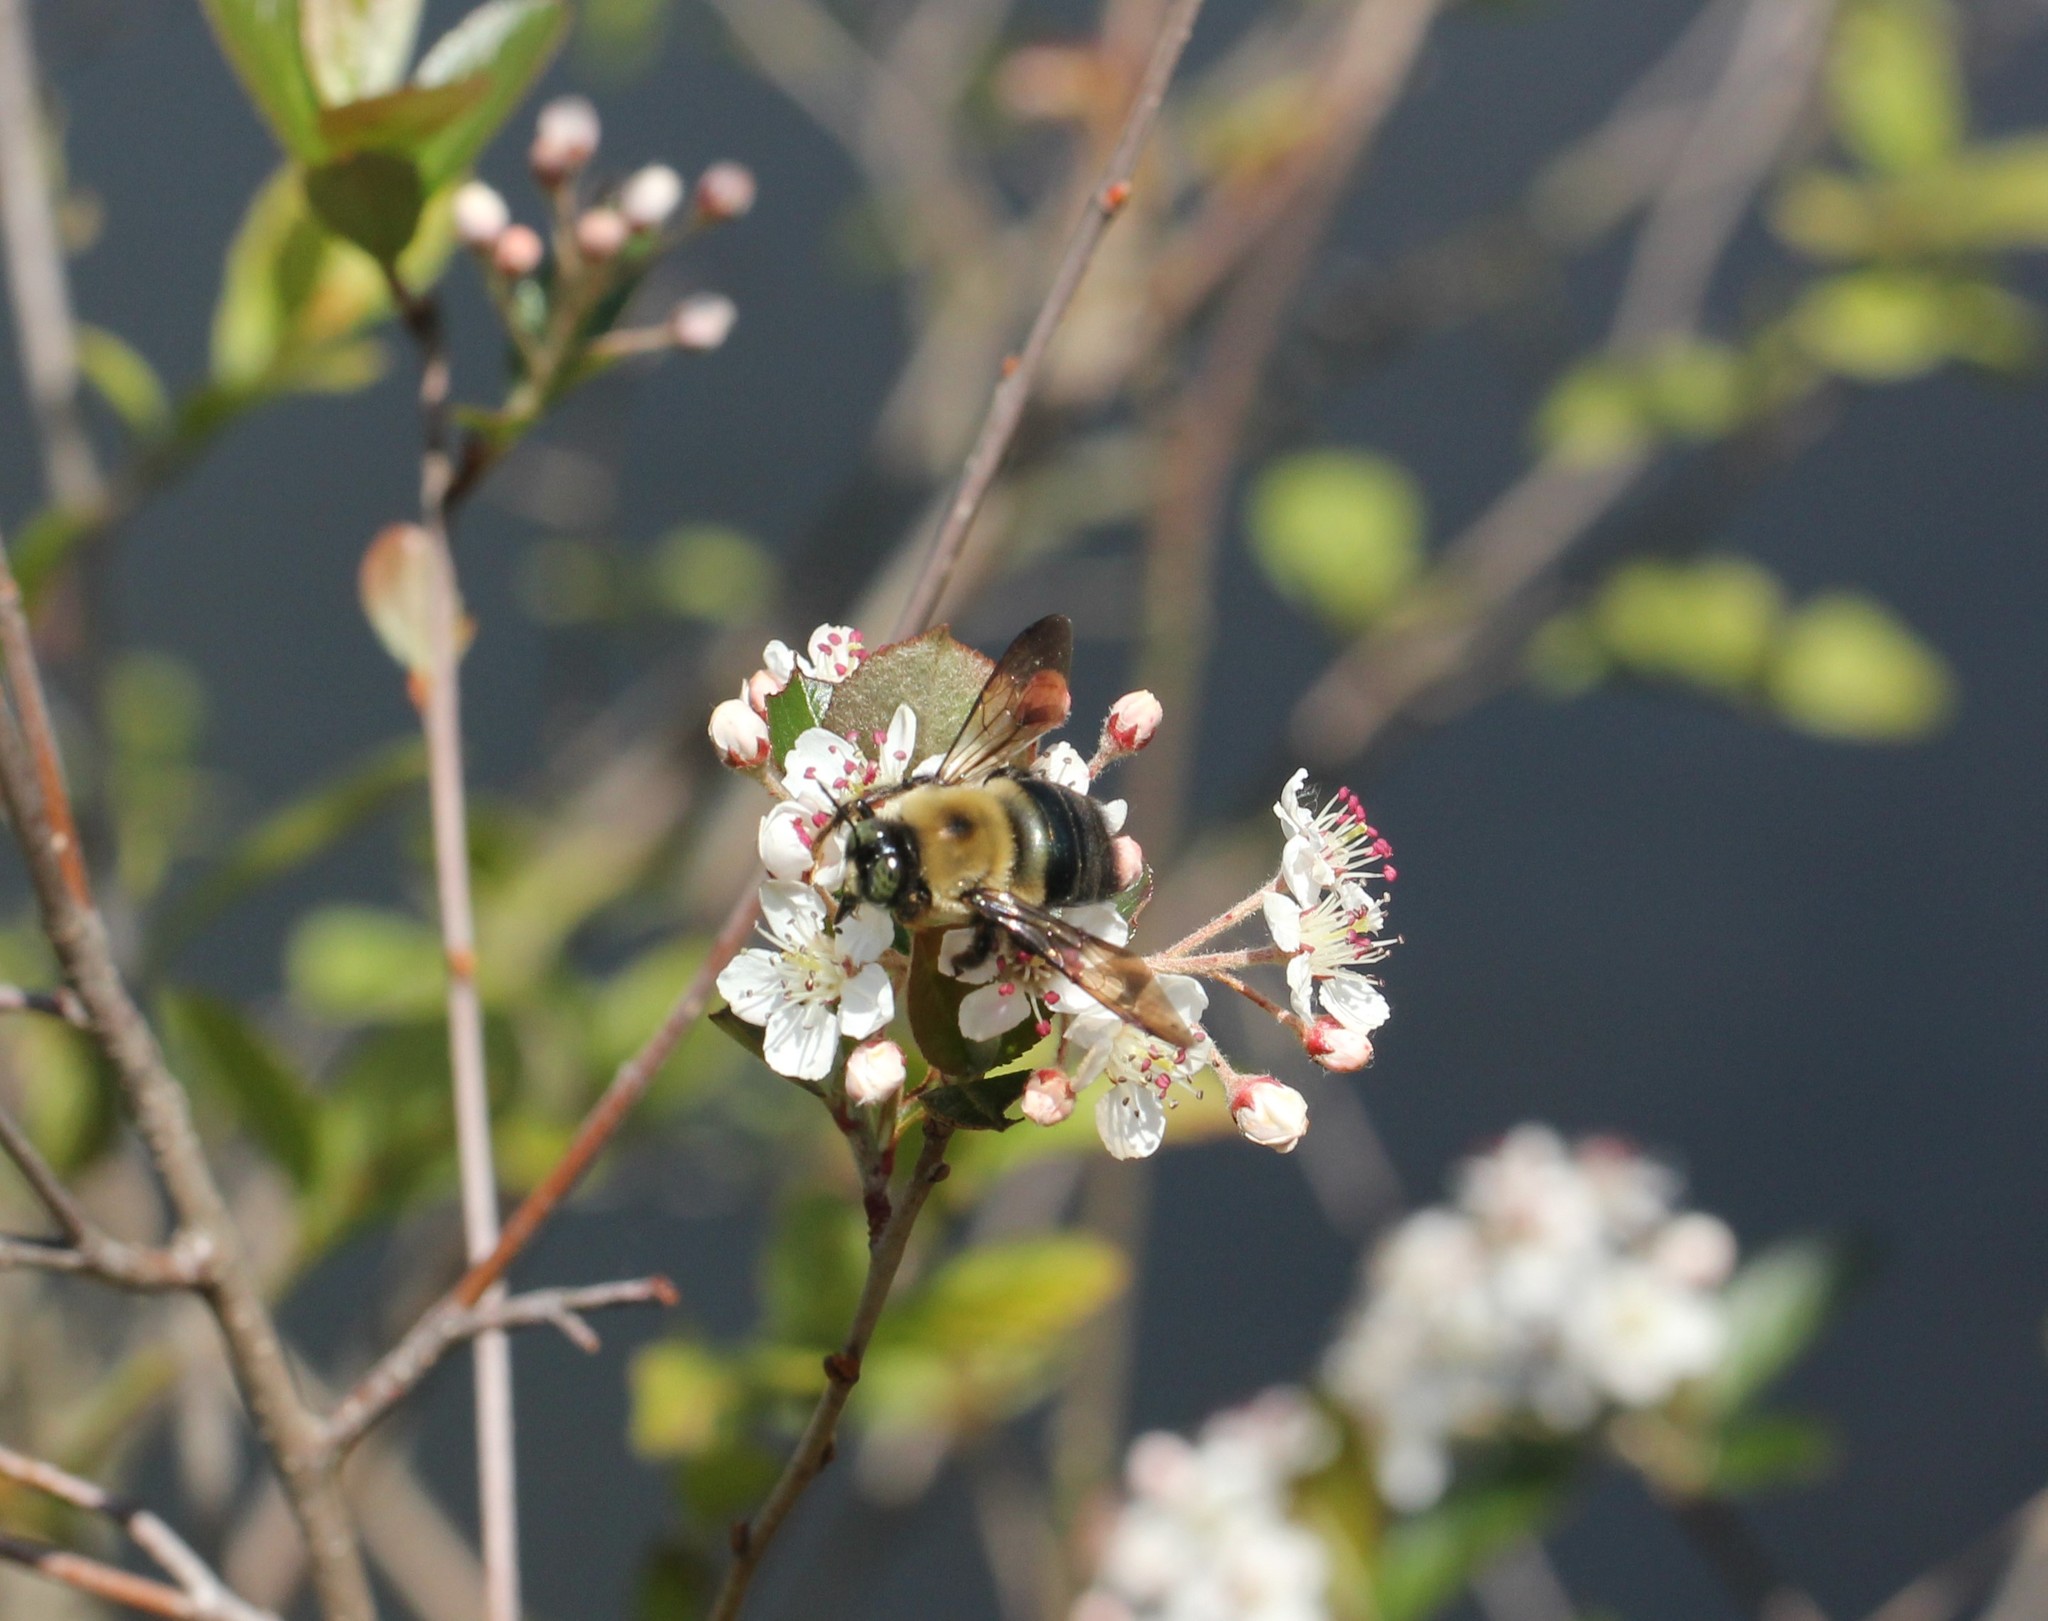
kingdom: Animalia
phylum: Arthropoda
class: Insecta
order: Hymenoptera
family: Apidae
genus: Xylocopa
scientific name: Xylocopa virginica
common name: Carpenter bee
